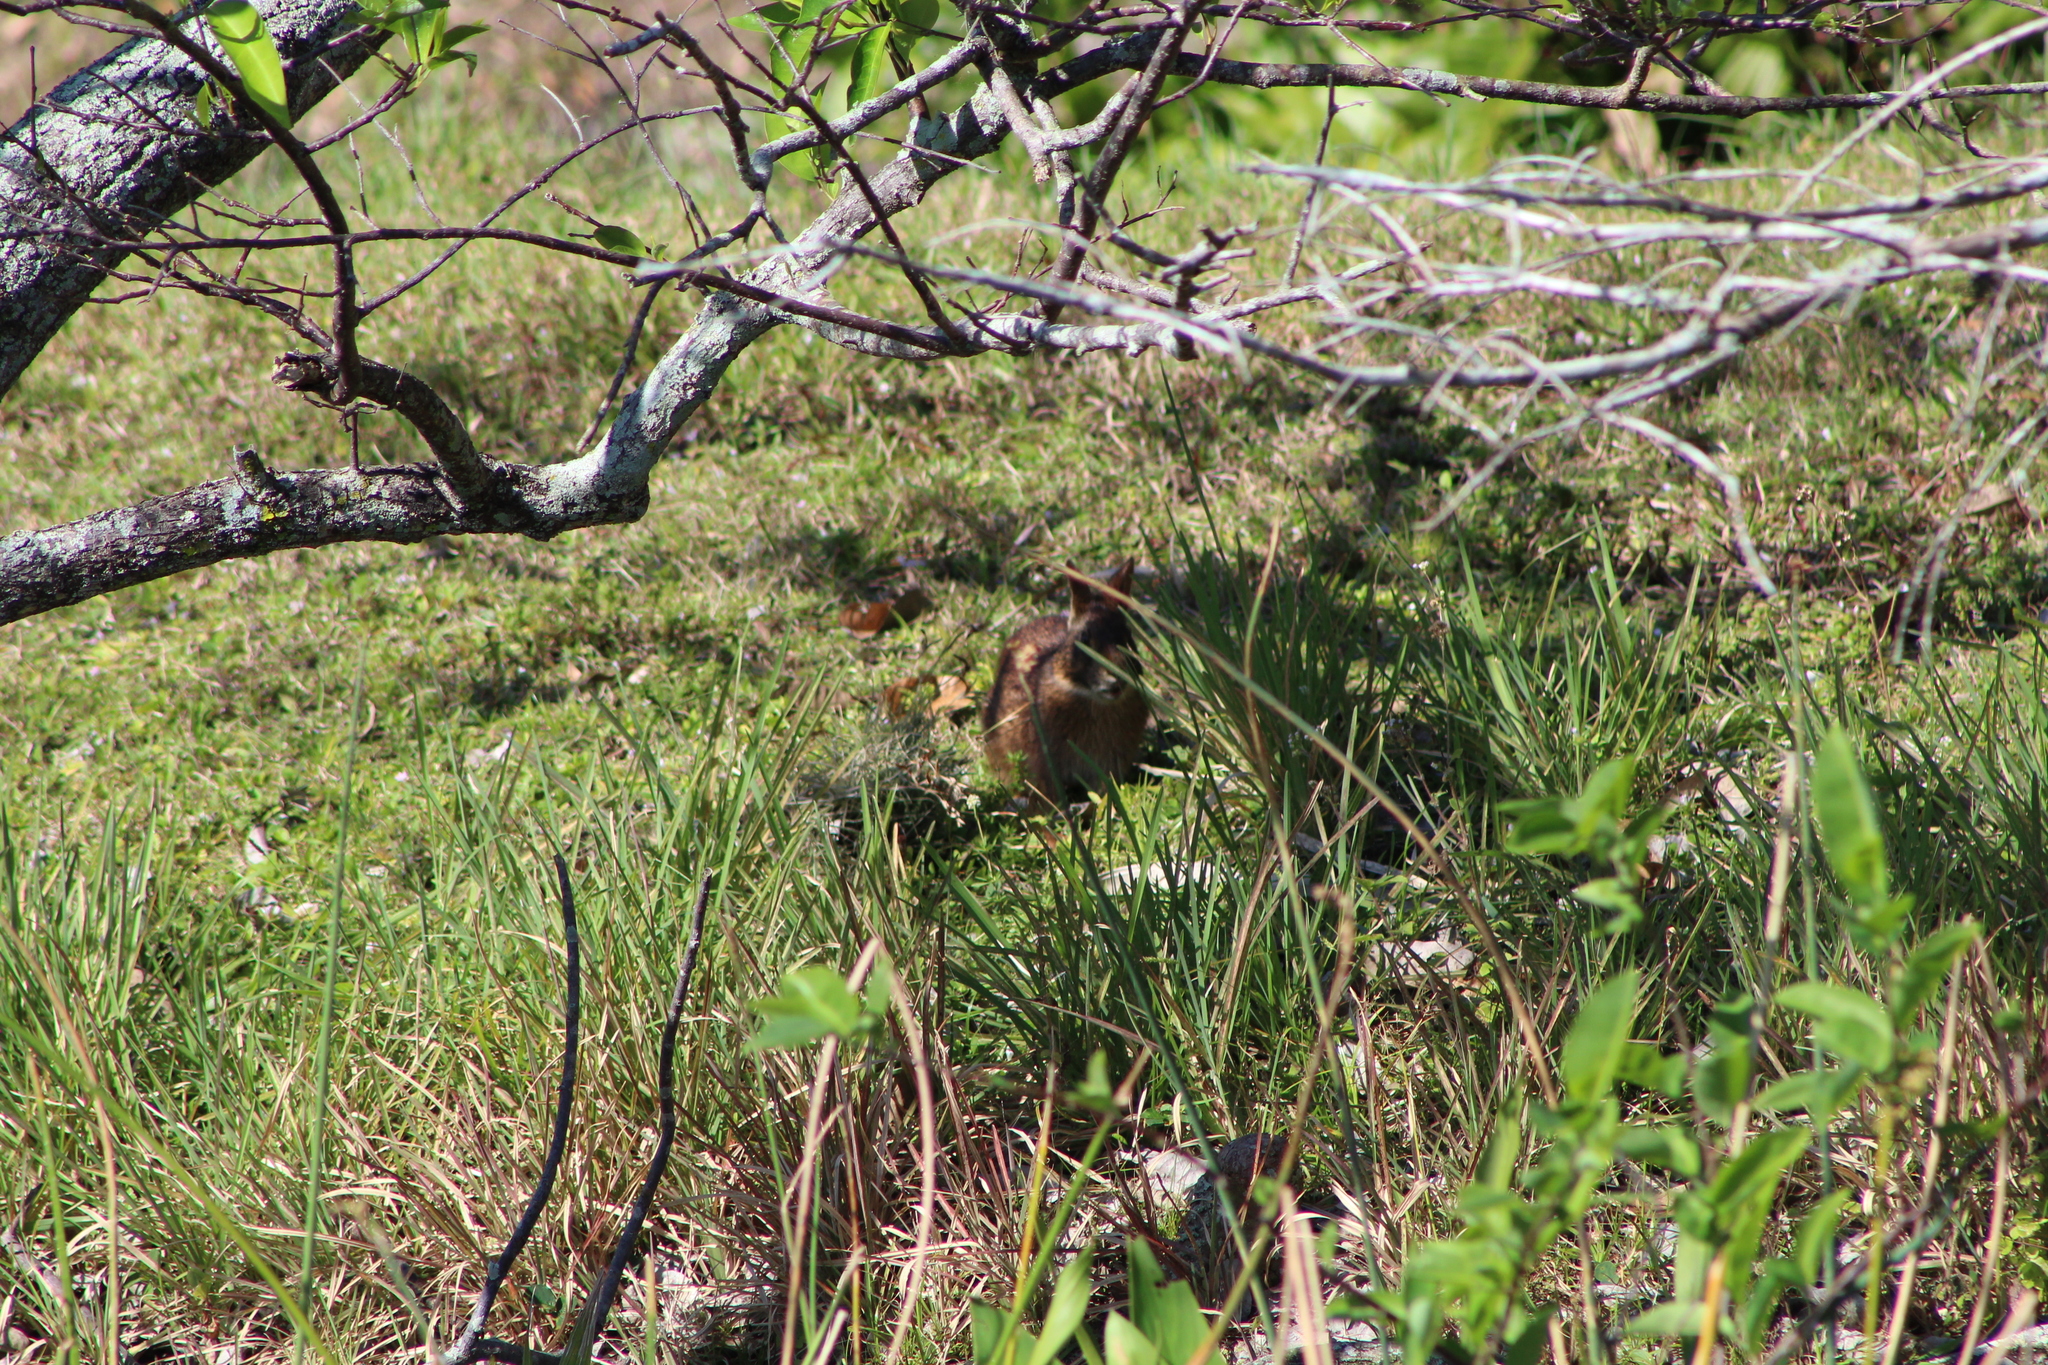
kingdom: Animalia
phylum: Chordata
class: Mammalia
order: Lagomorpha
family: Leporidae
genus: Sylvilagus
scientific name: Sylvilagus palustris
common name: Marsh rabbit
